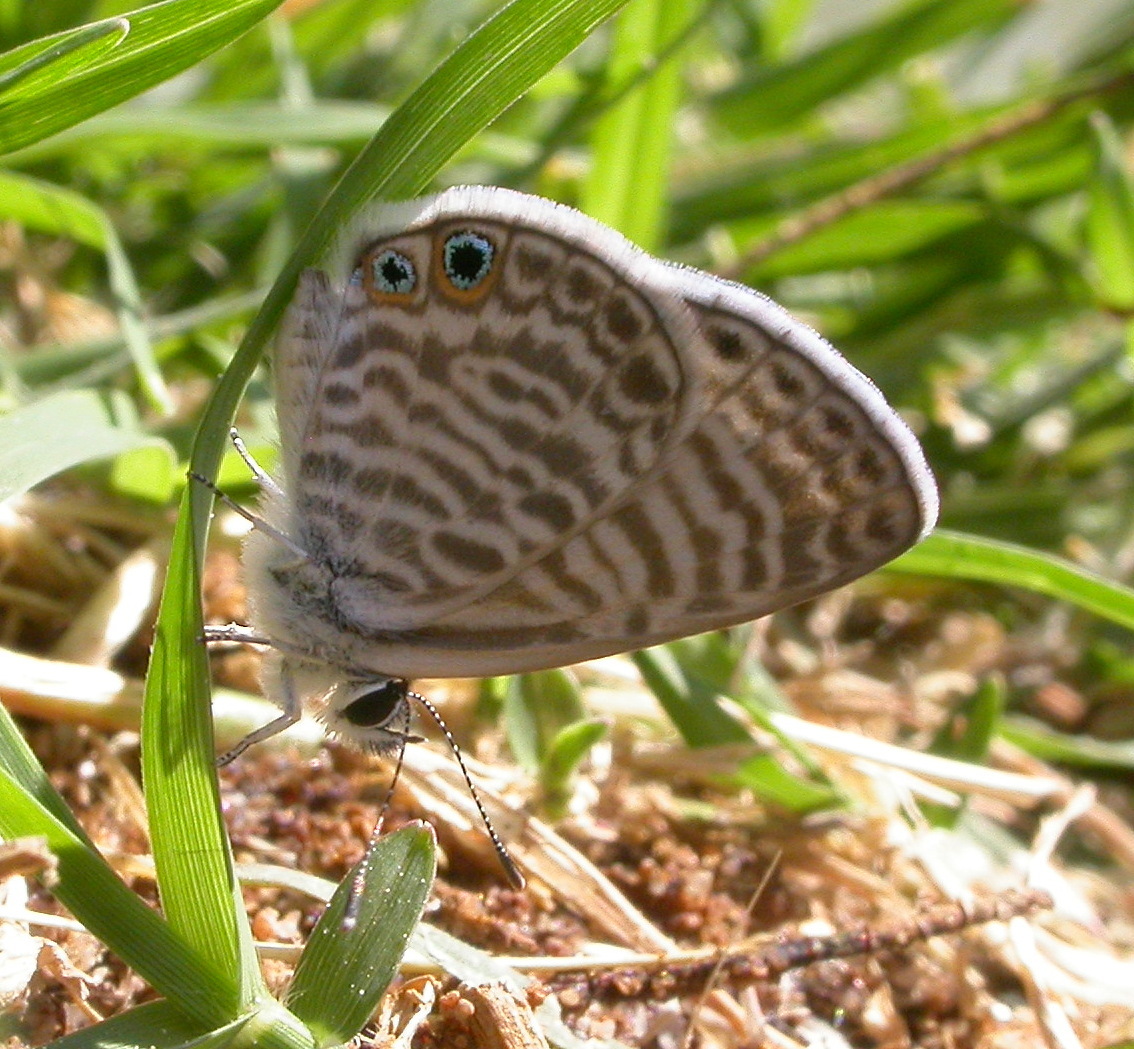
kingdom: Animalia
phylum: Arthropoda
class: Insecta
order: Lepidoptera
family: Lycaenidae
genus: Leptotes
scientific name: Leptotes marina
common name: Marine blue
